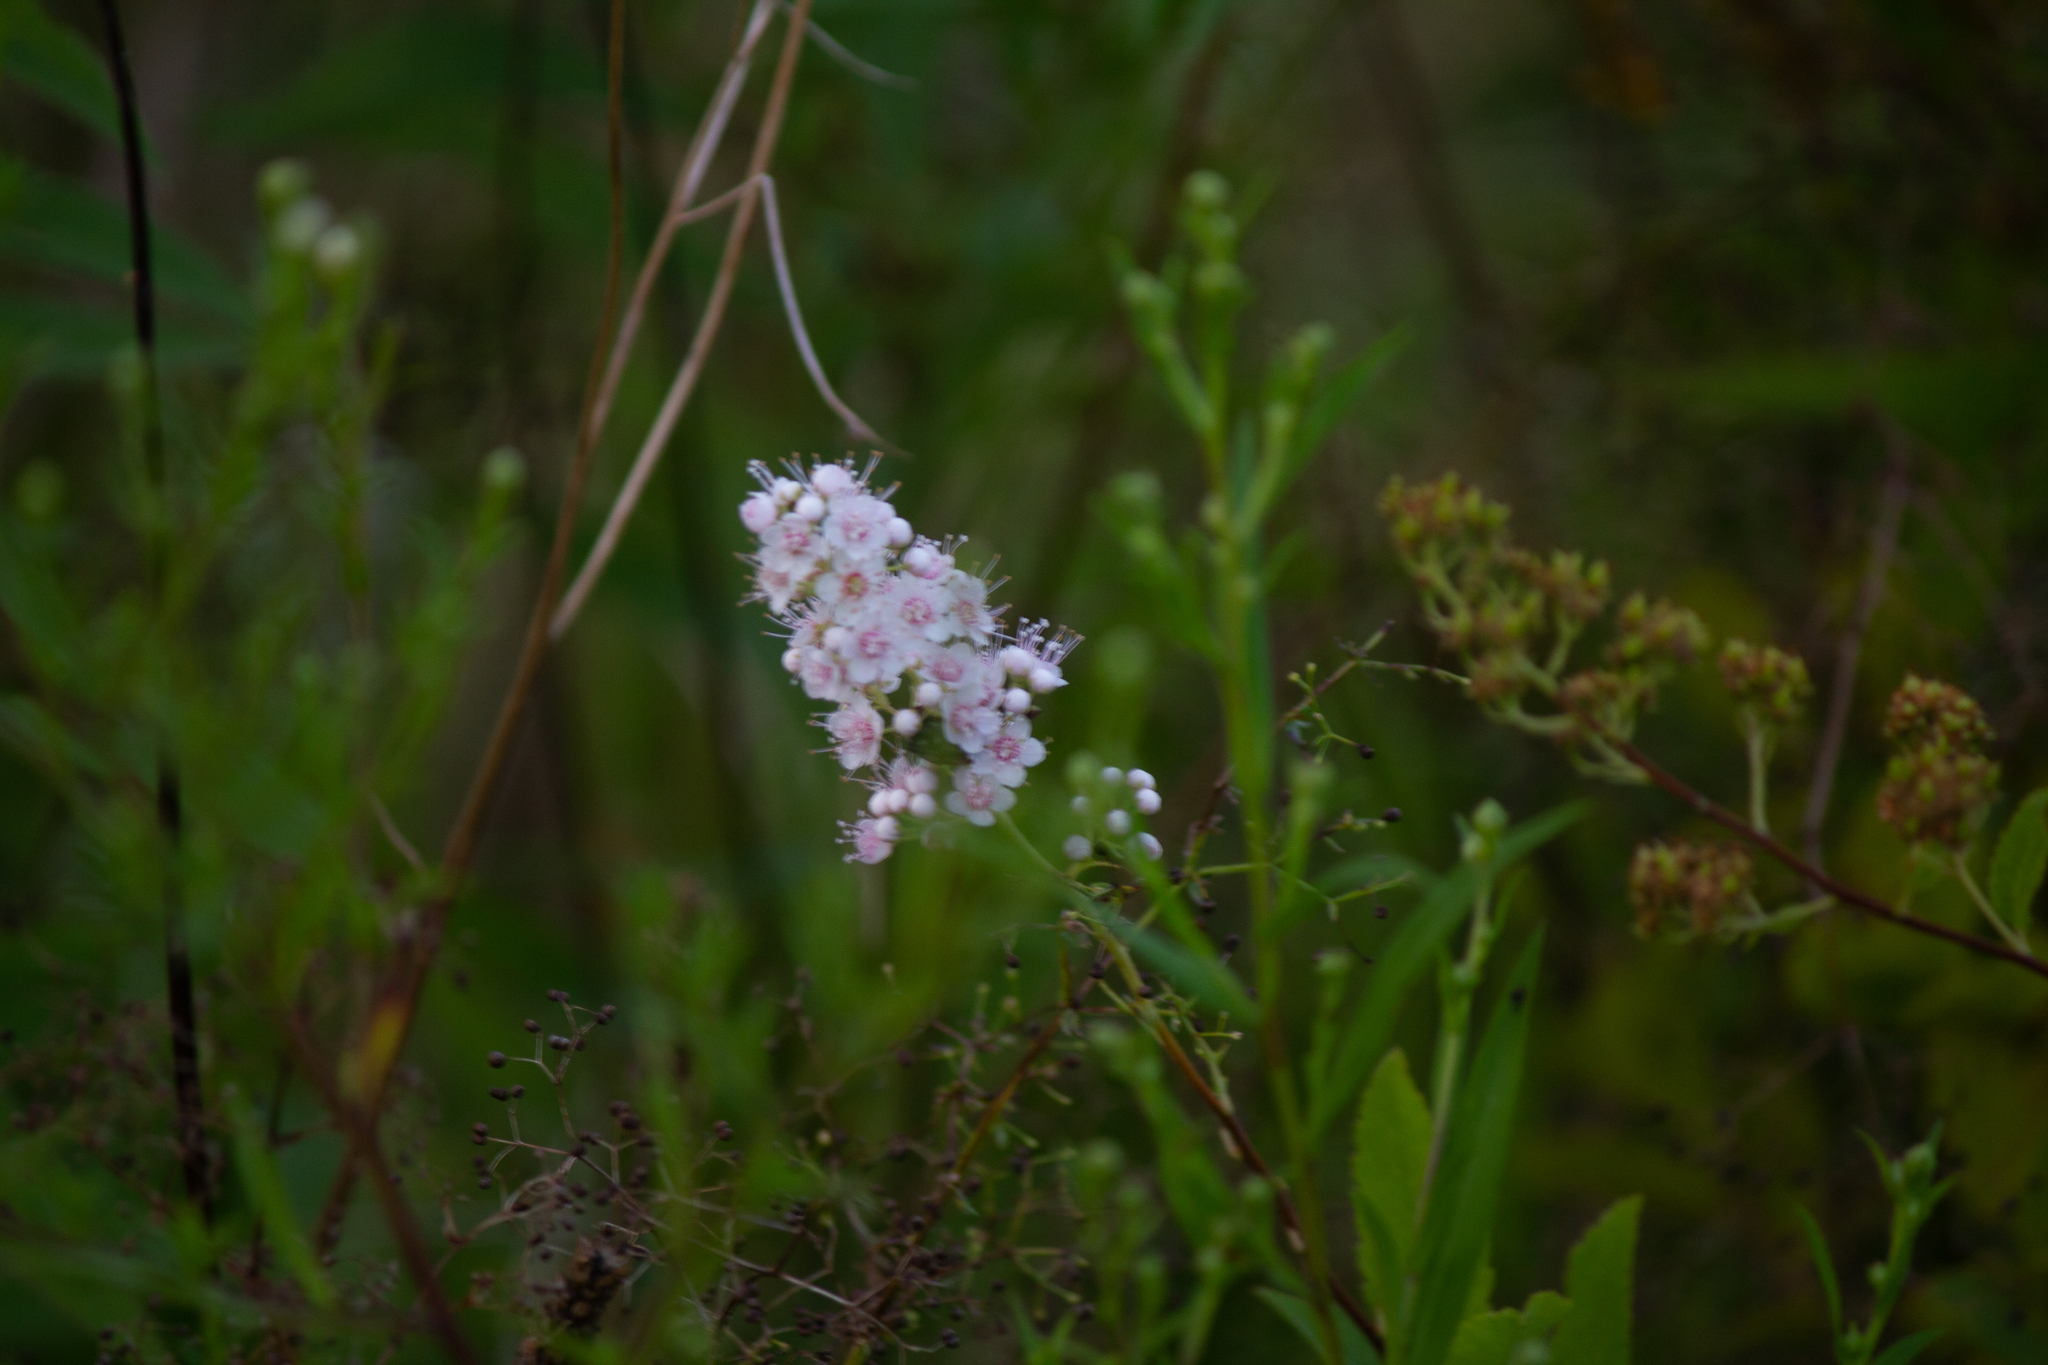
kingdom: Plantae
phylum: Tracheophyta
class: Magnoliopsida
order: Rosales
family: Rosaceae
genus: Spiraea
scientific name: Spiraea alba
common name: Pale bridewort
